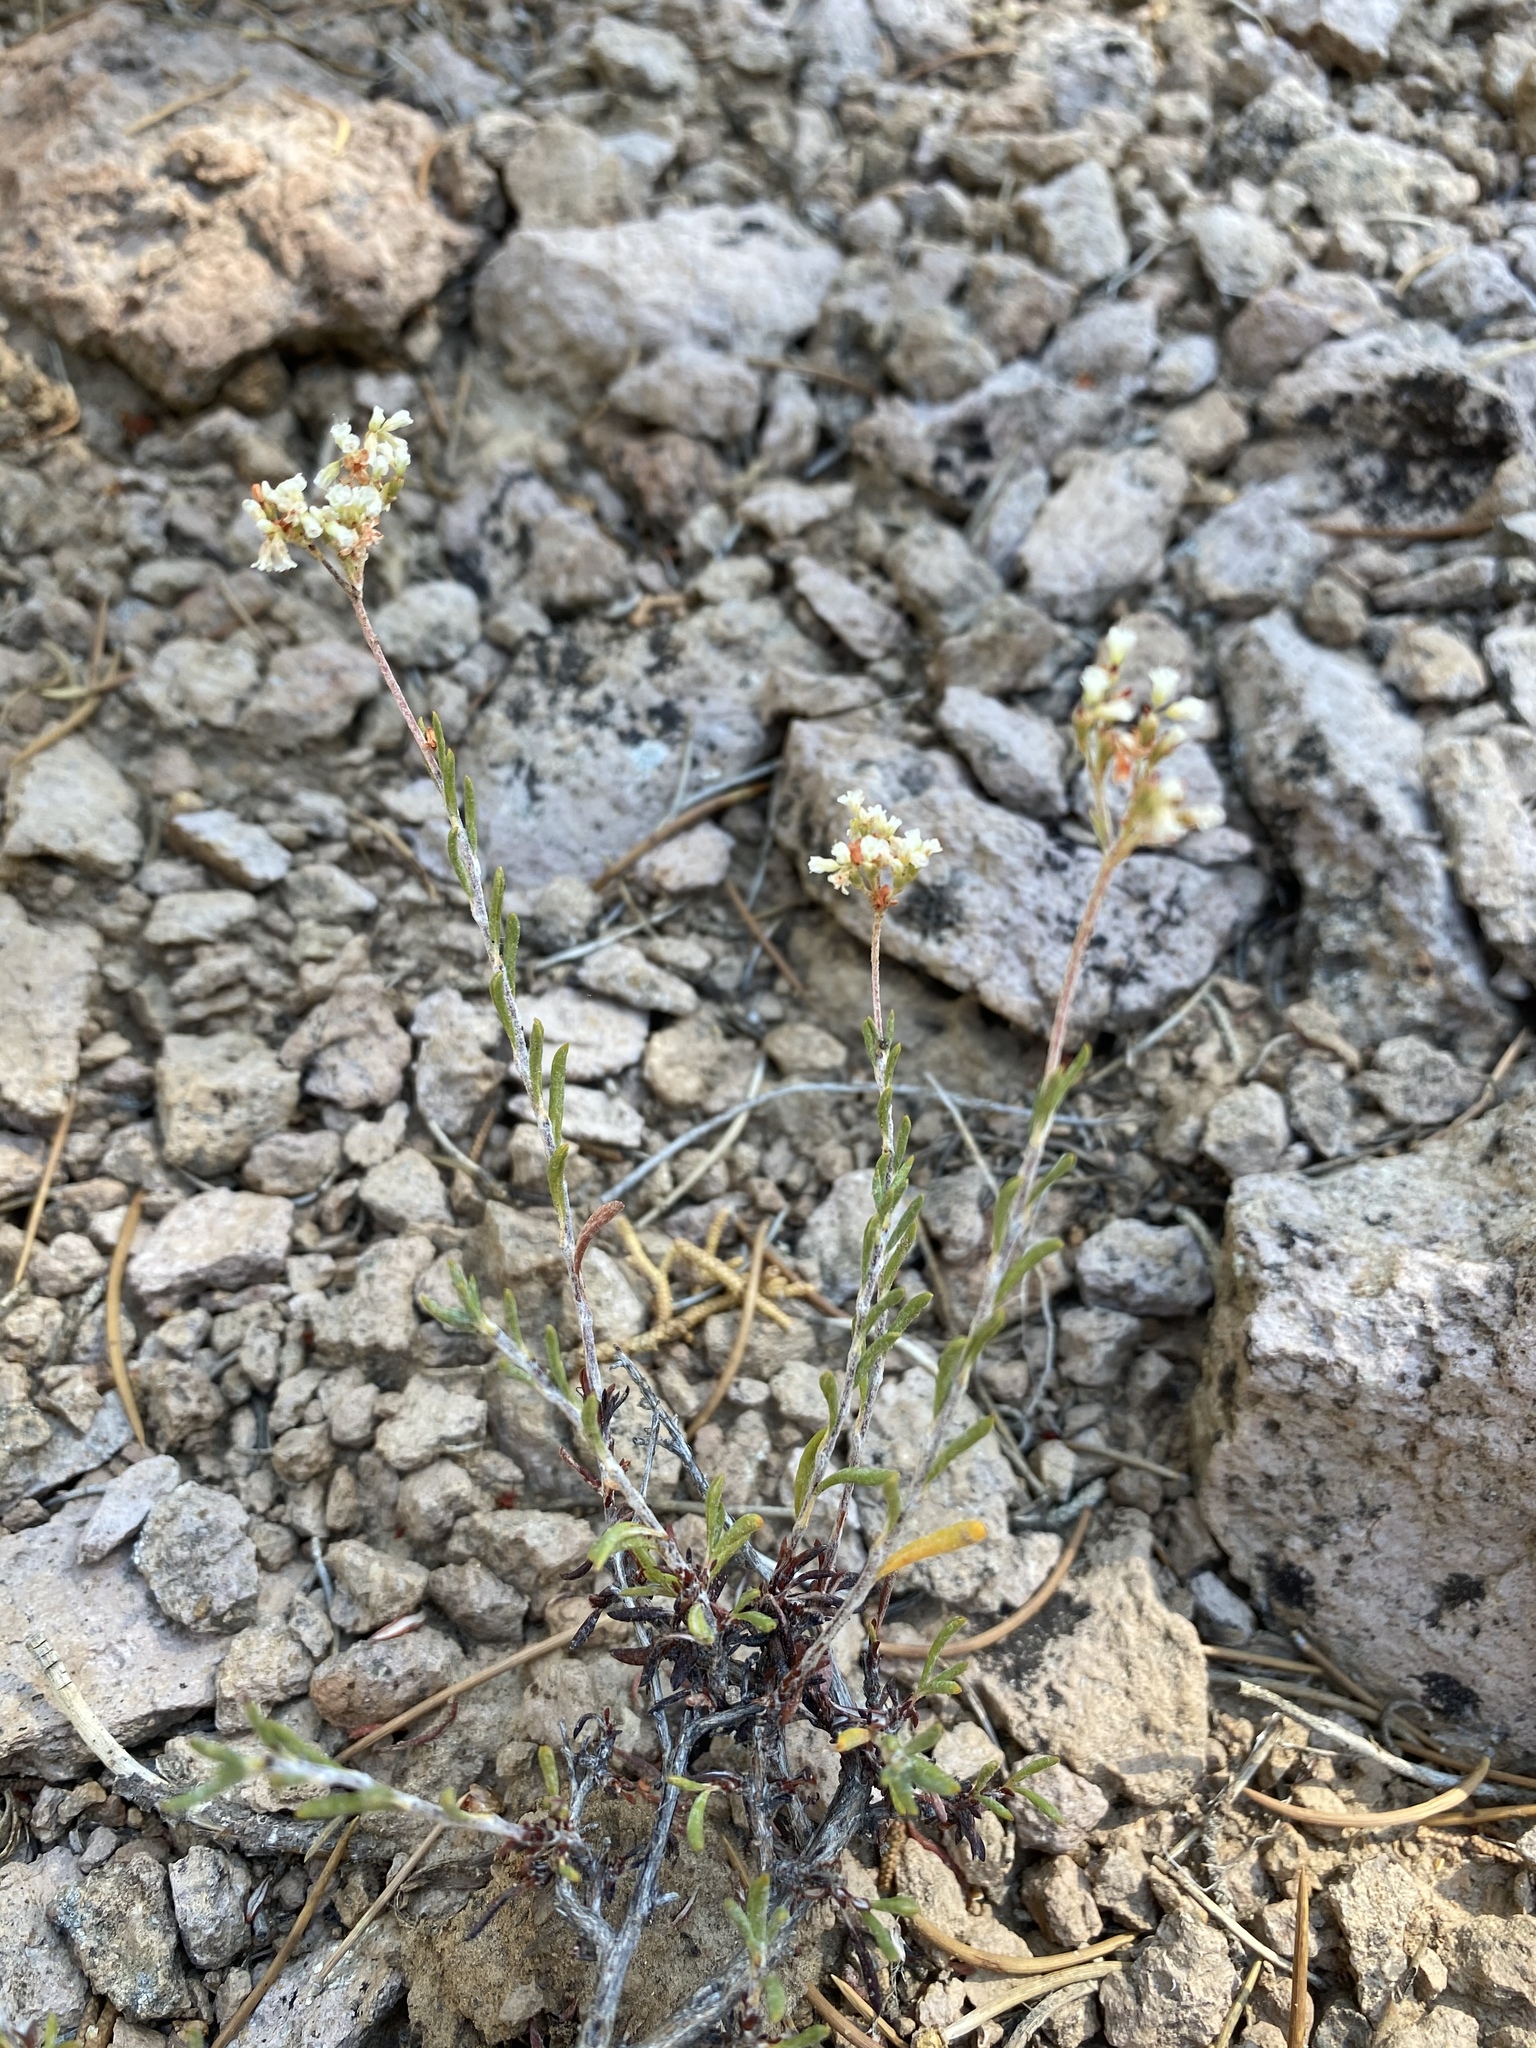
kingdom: Plantae
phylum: Tracheophyta
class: Magnoliopsida
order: Caryophyllales
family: Polygonaceae
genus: Eriogonum
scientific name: Eriogonum microtheca
